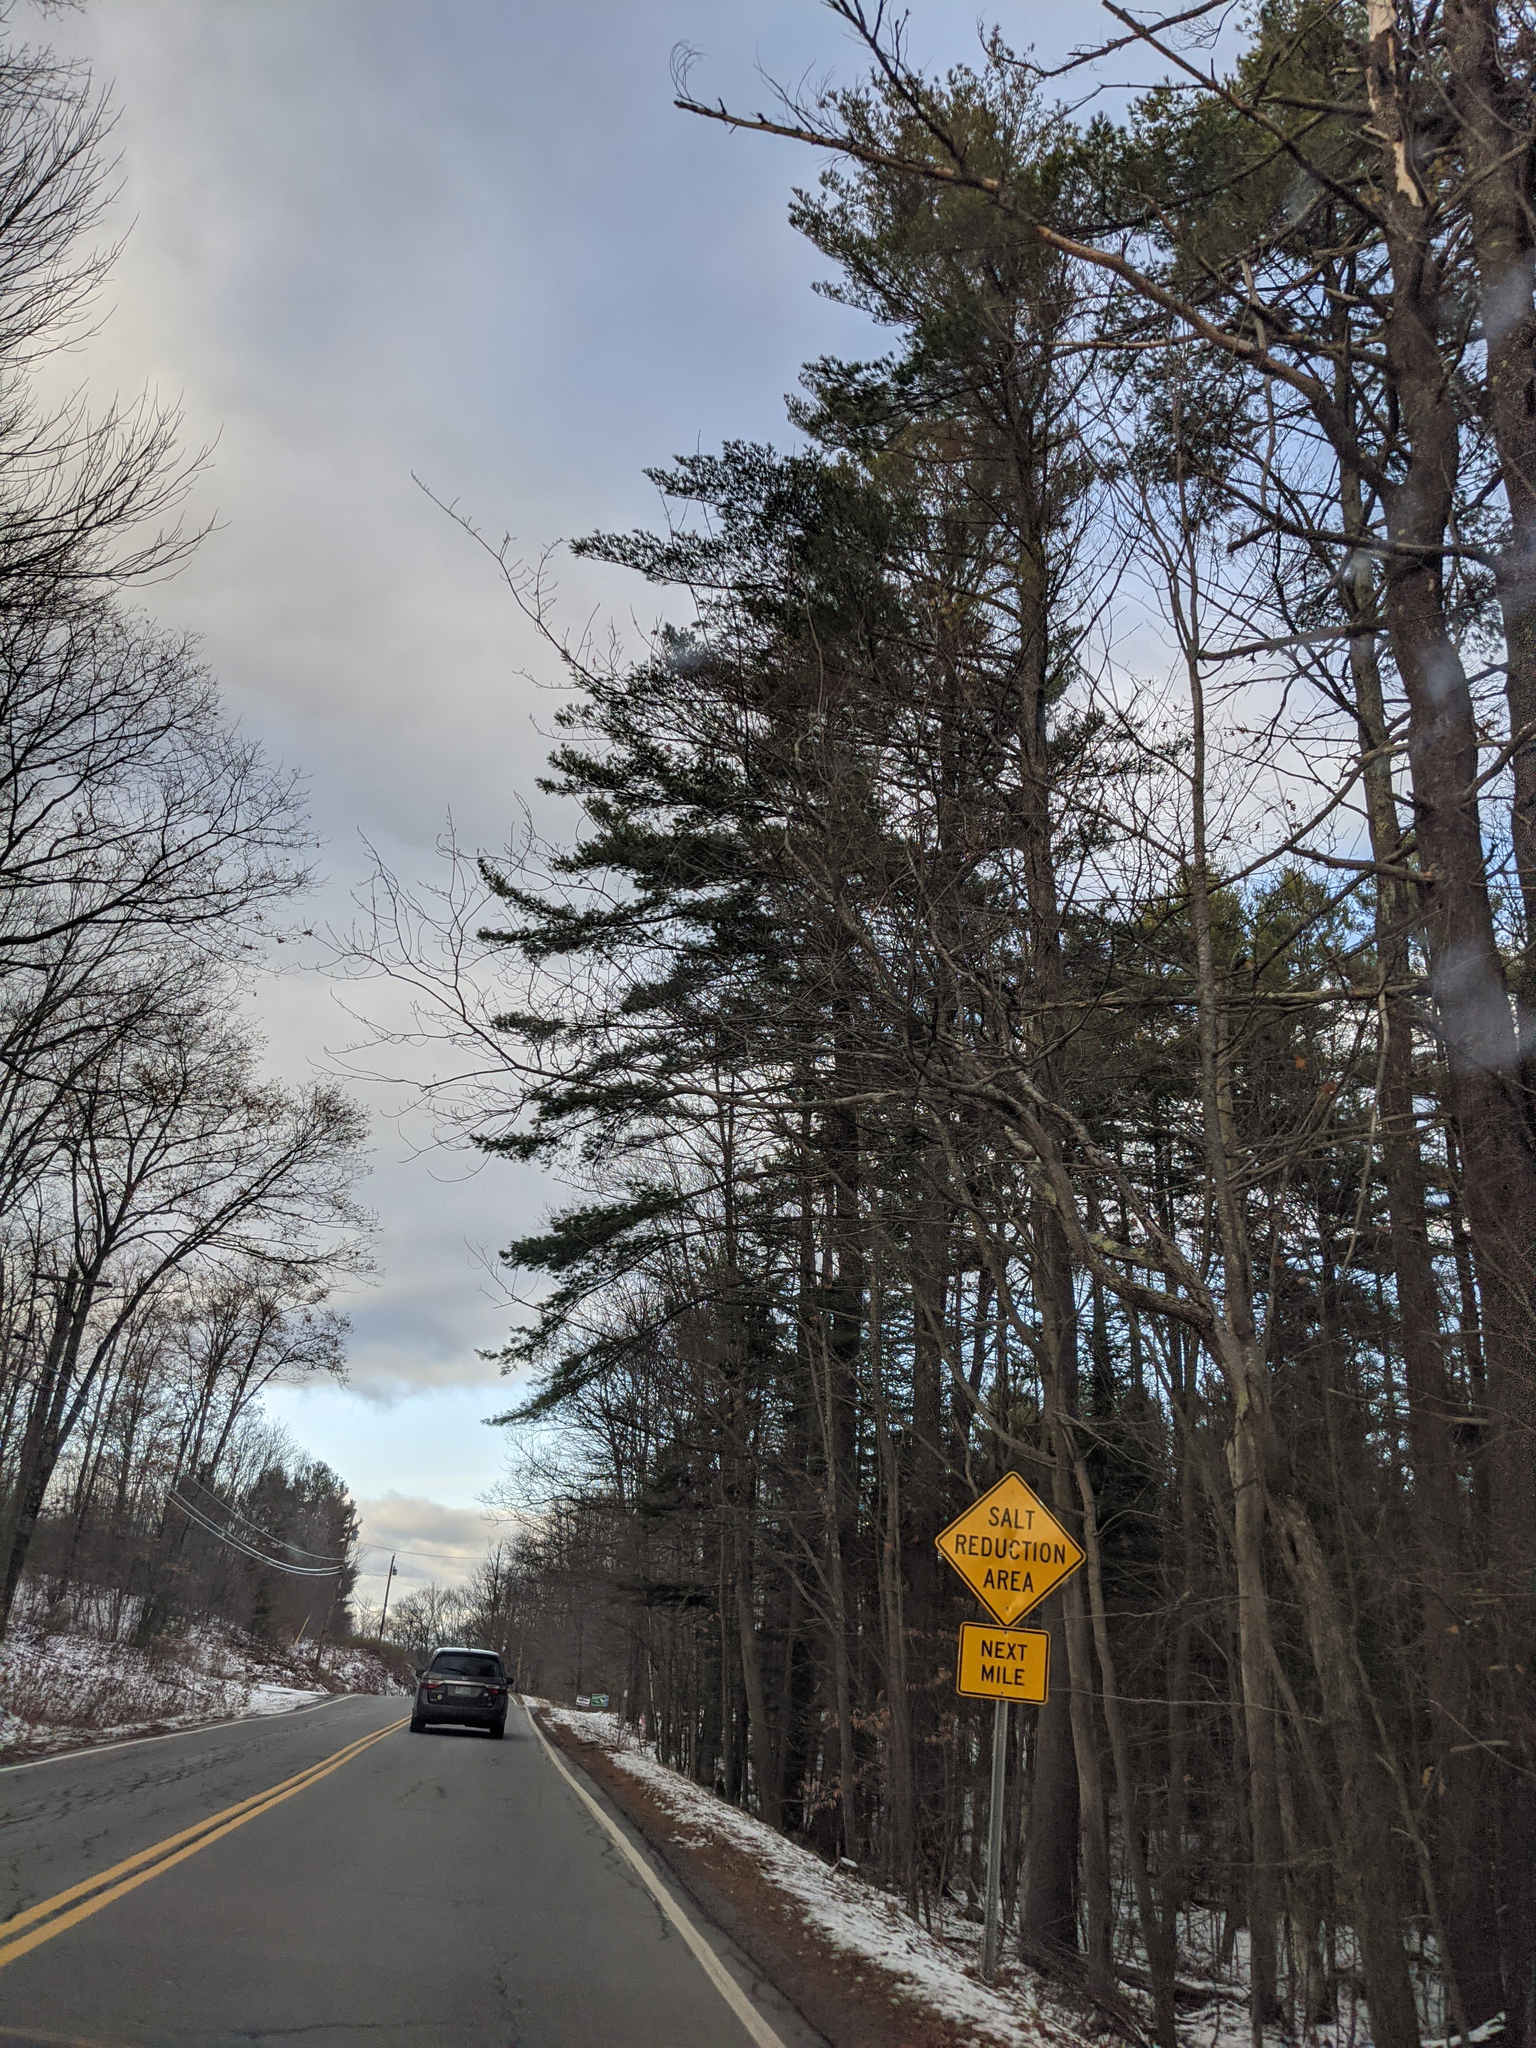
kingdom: Plantae
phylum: Tracheophyta
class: Pinopsida
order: Pinales
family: Pinaceae
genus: Pinus
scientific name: Pinus strobus
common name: Weymouth pine
